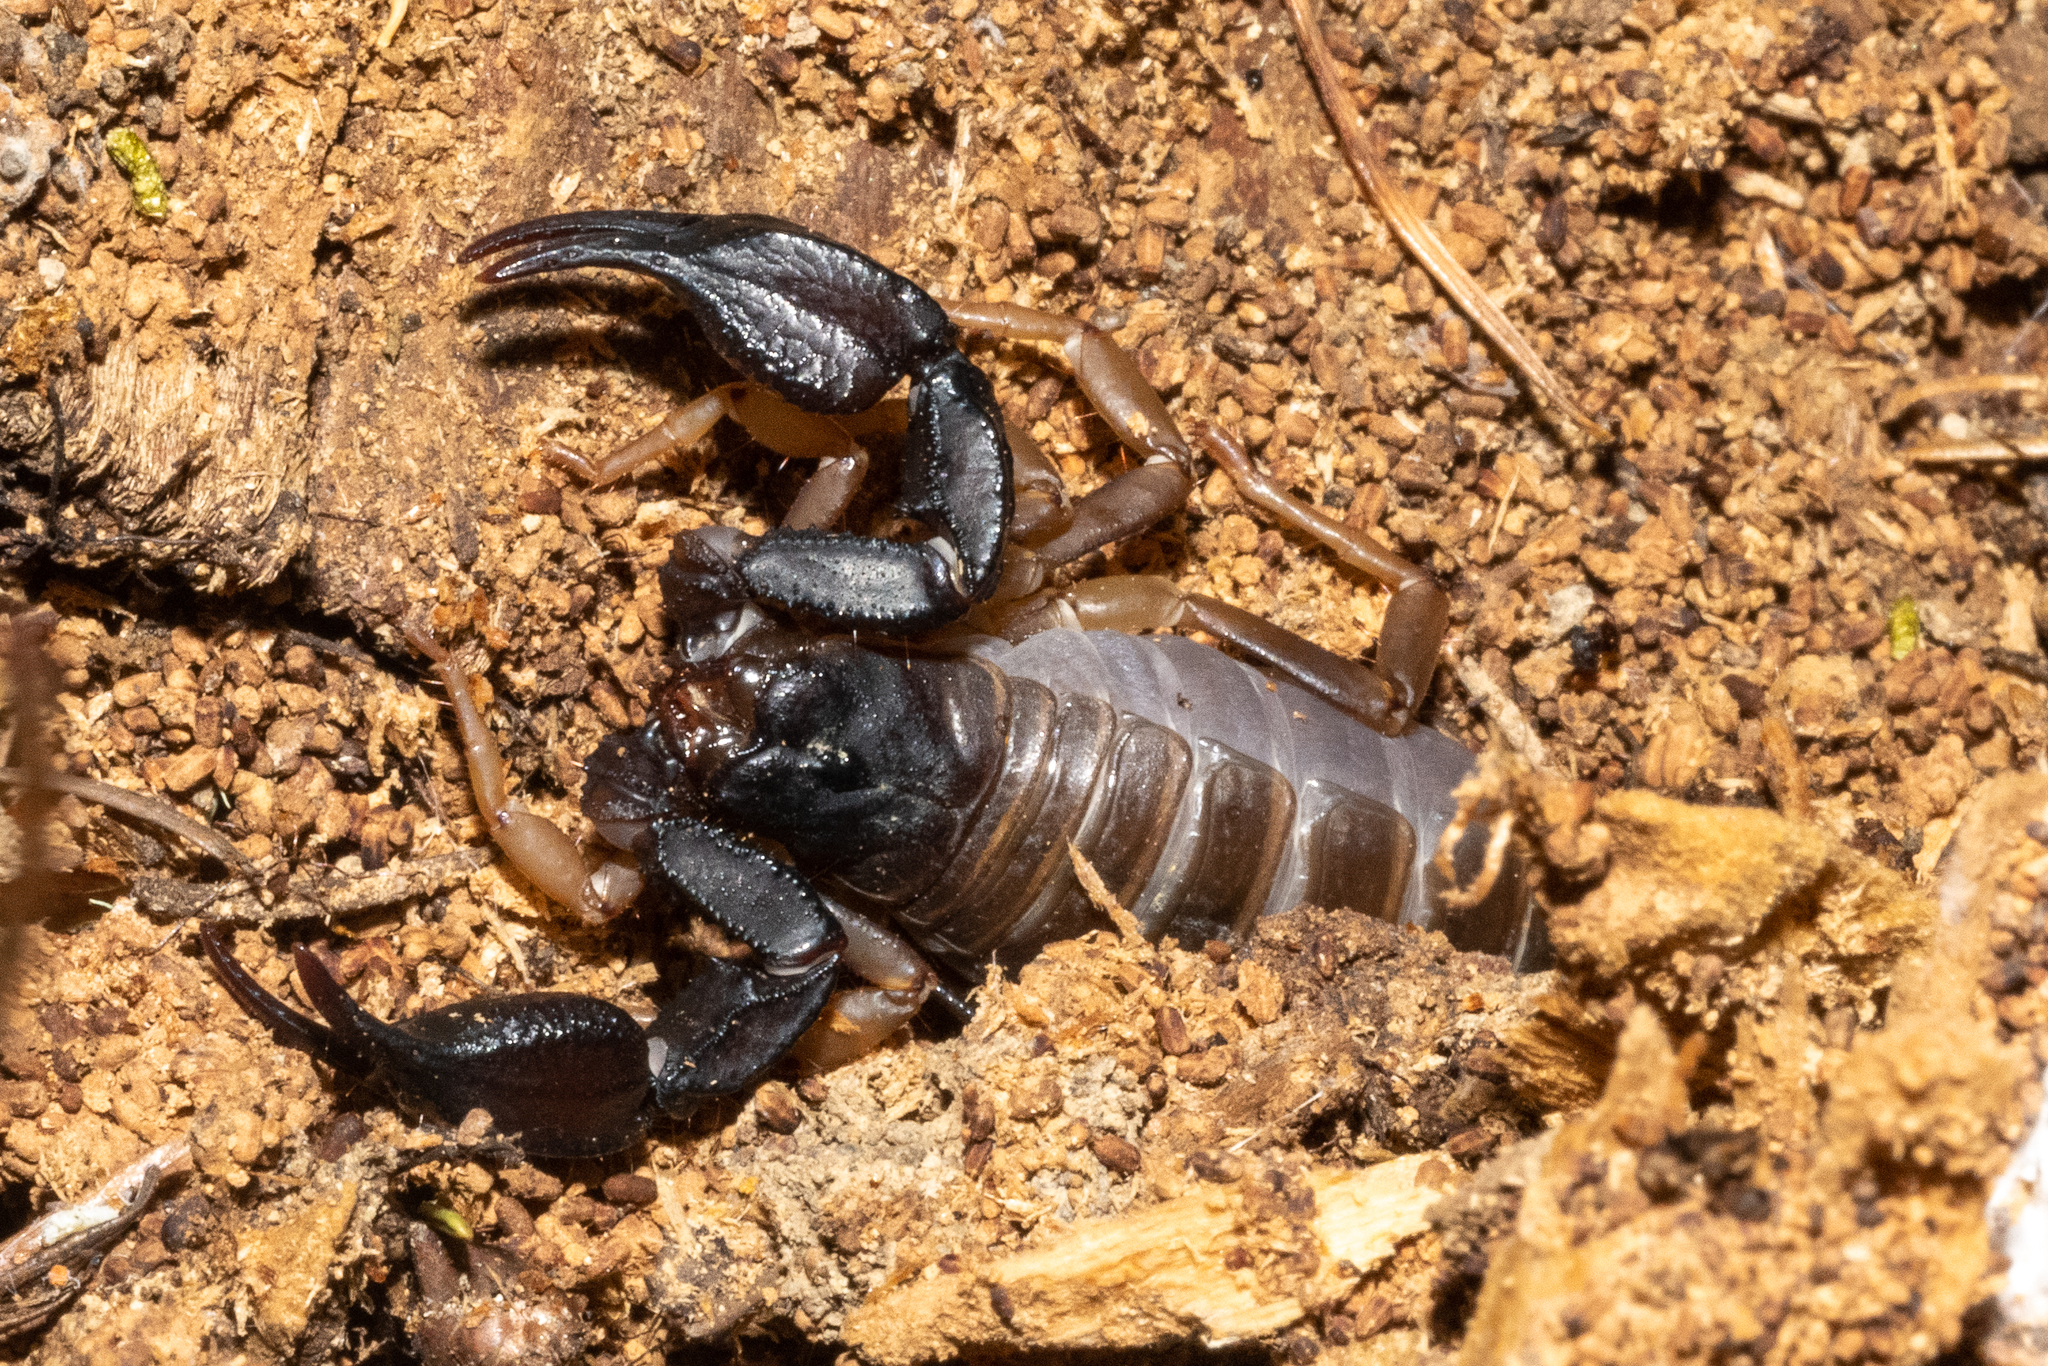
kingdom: Animalia
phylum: Arthropoda
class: Arachnida
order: Scorpiones
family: Chactidae
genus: Uroctonus
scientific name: Uroctonus mordax
